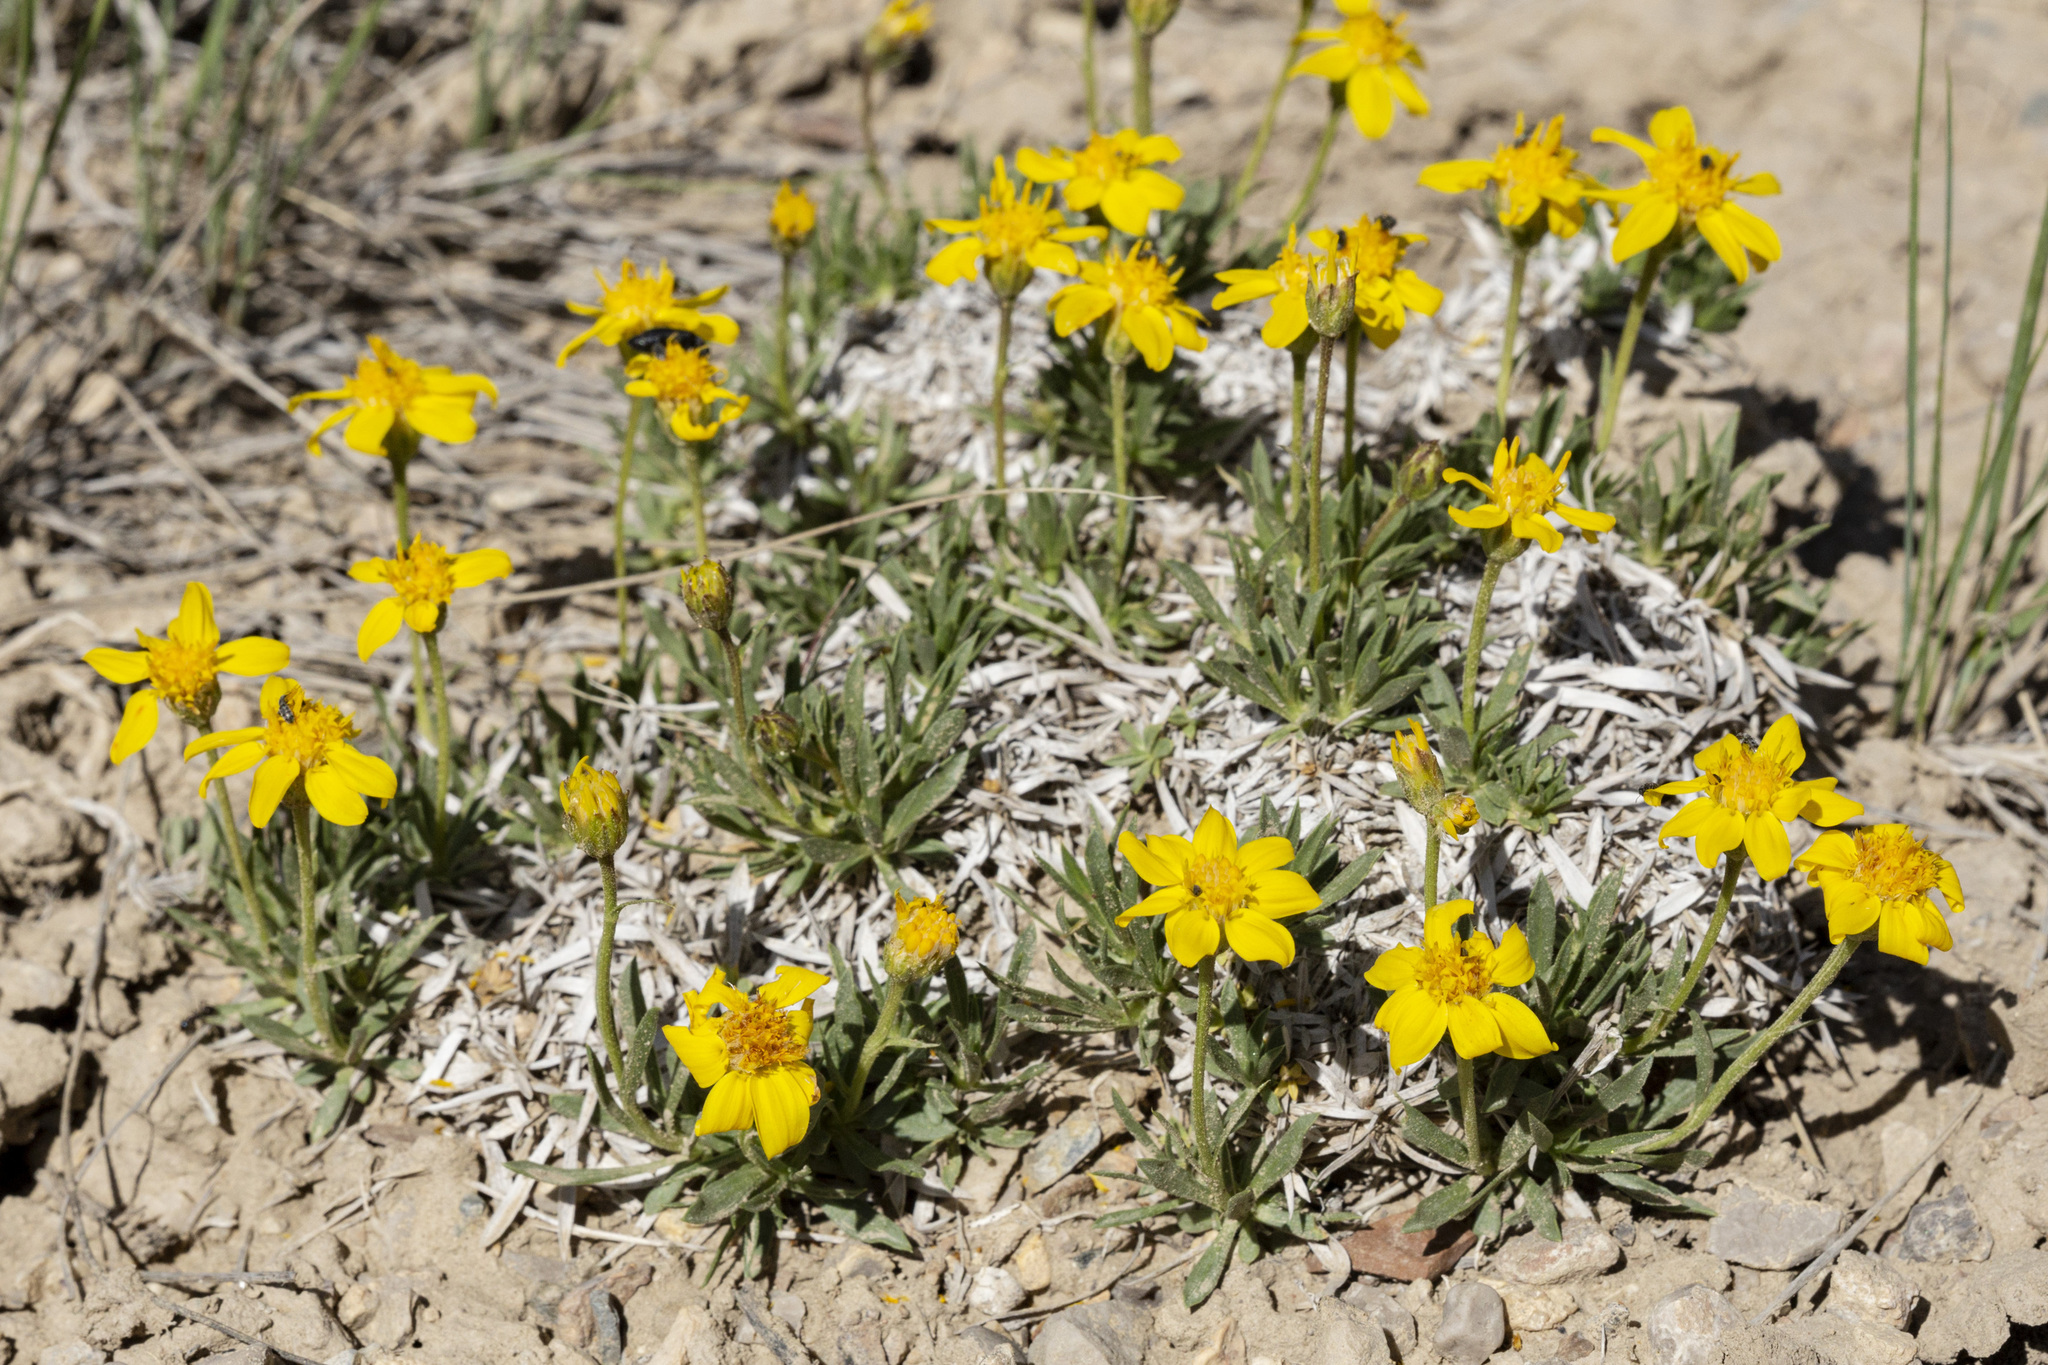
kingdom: Plantae
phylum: Tracheophyta
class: Magnoliopsida
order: Asterales
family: Asteraceae
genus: Stenotus
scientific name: Stenotus acaulis
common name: Stemless goldenweed
